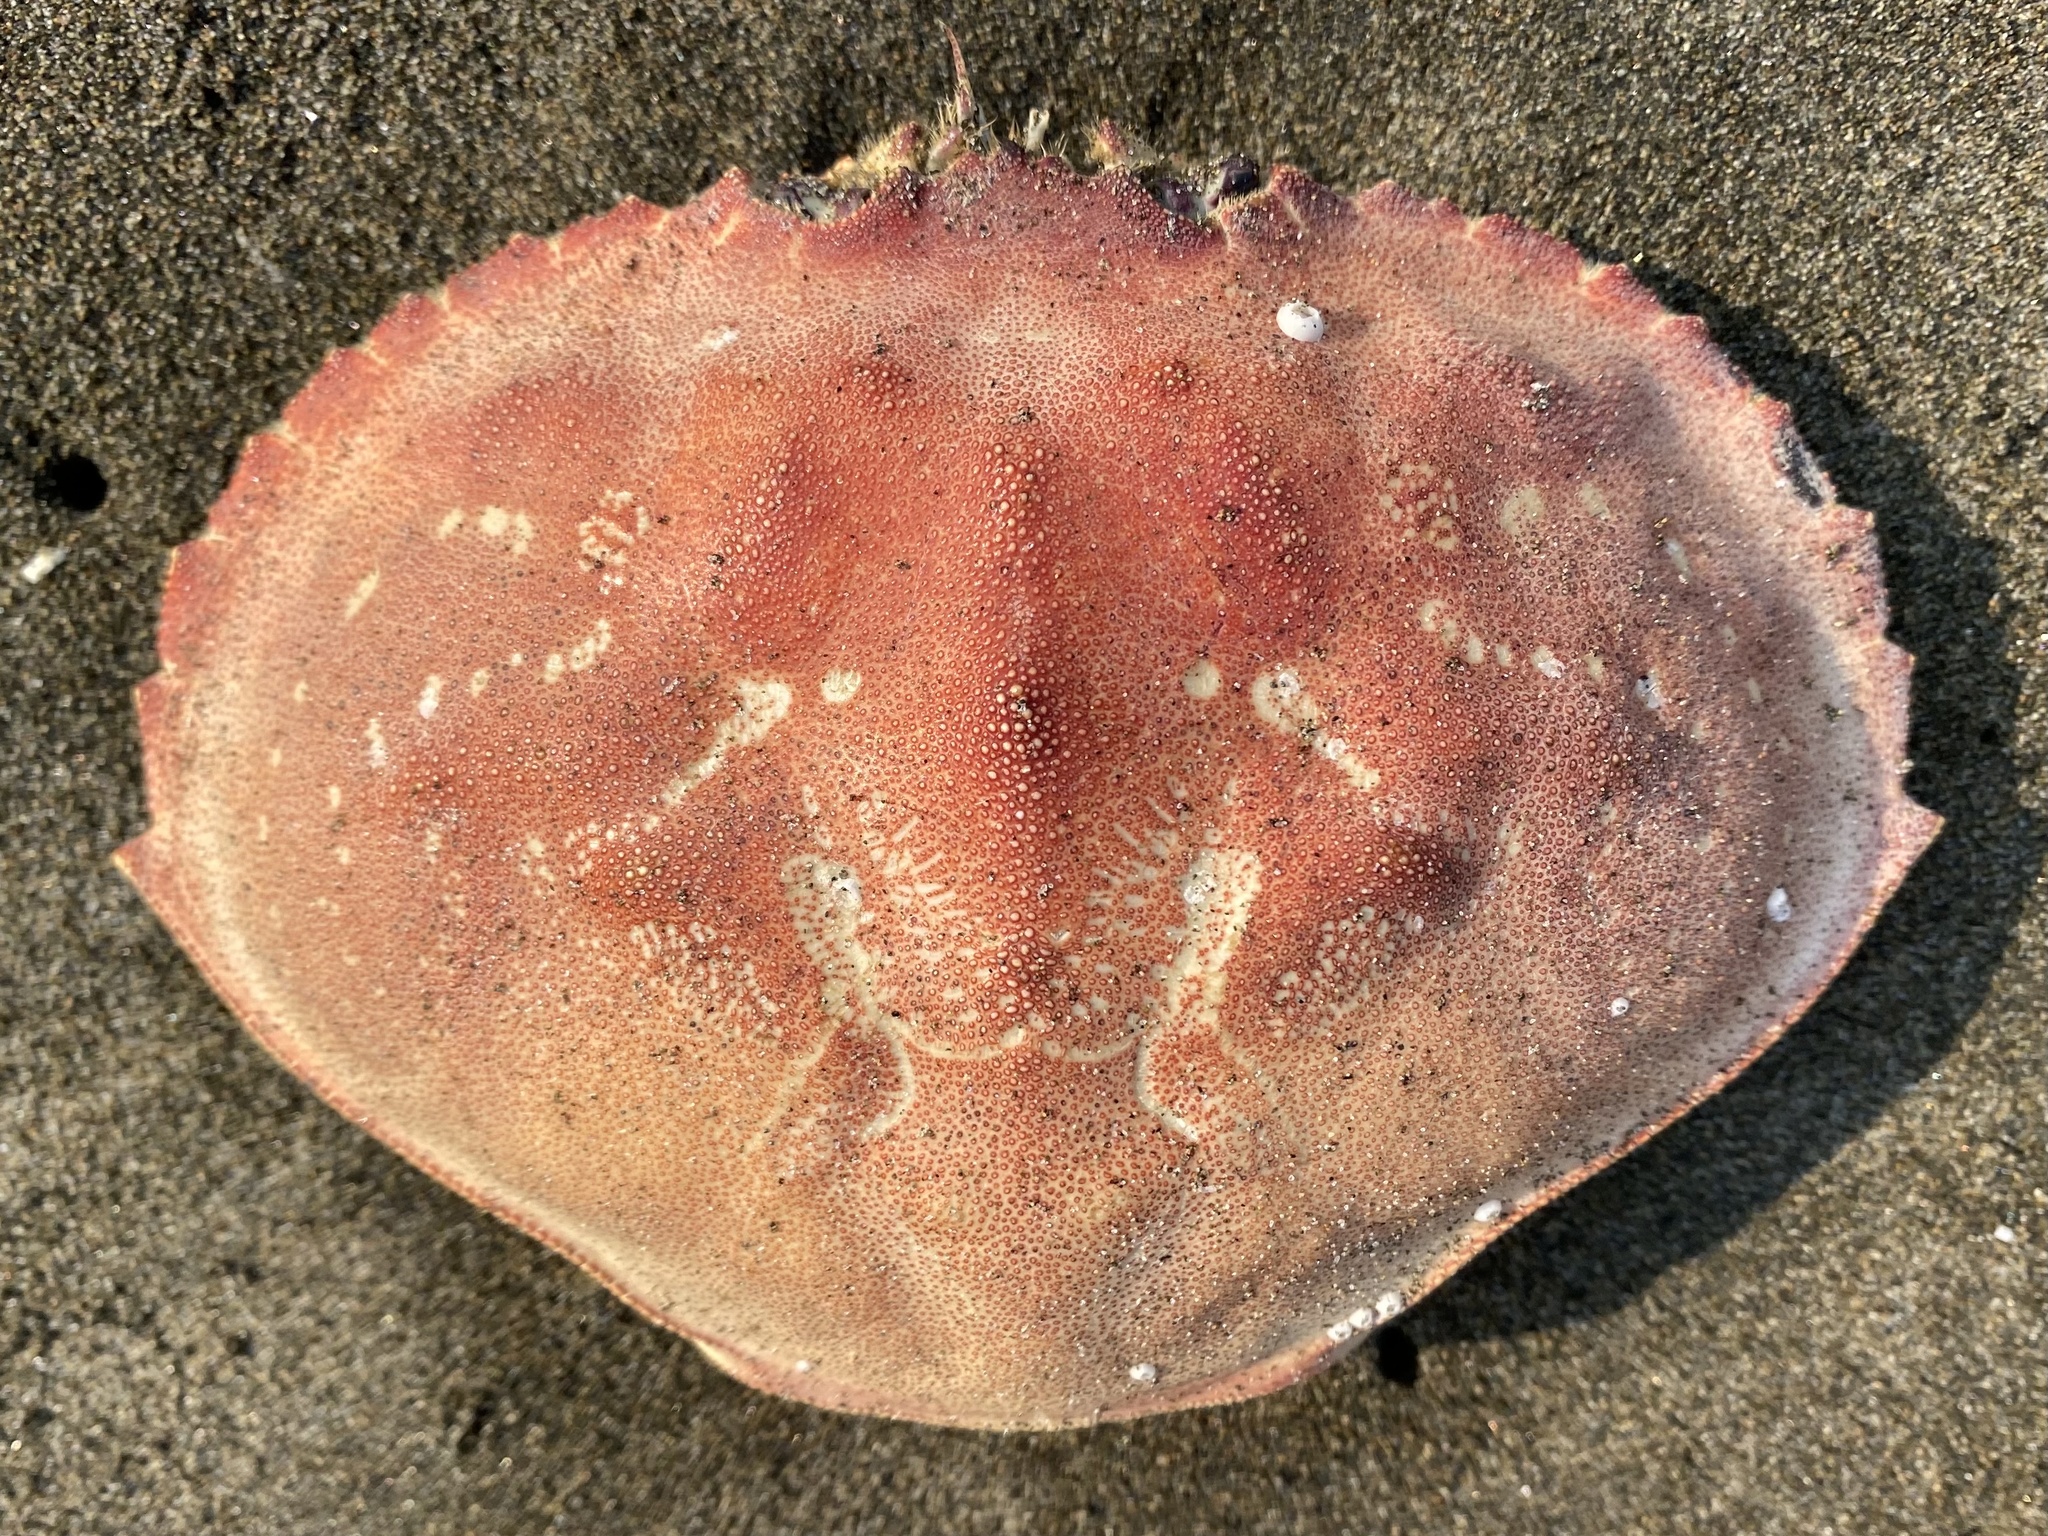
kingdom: Animalia
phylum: Arthropoda
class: Malacostraca
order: Decapoda
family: Cancridae
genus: Metacarcinus
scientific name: Metacarcinus magister
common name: Californian crab
